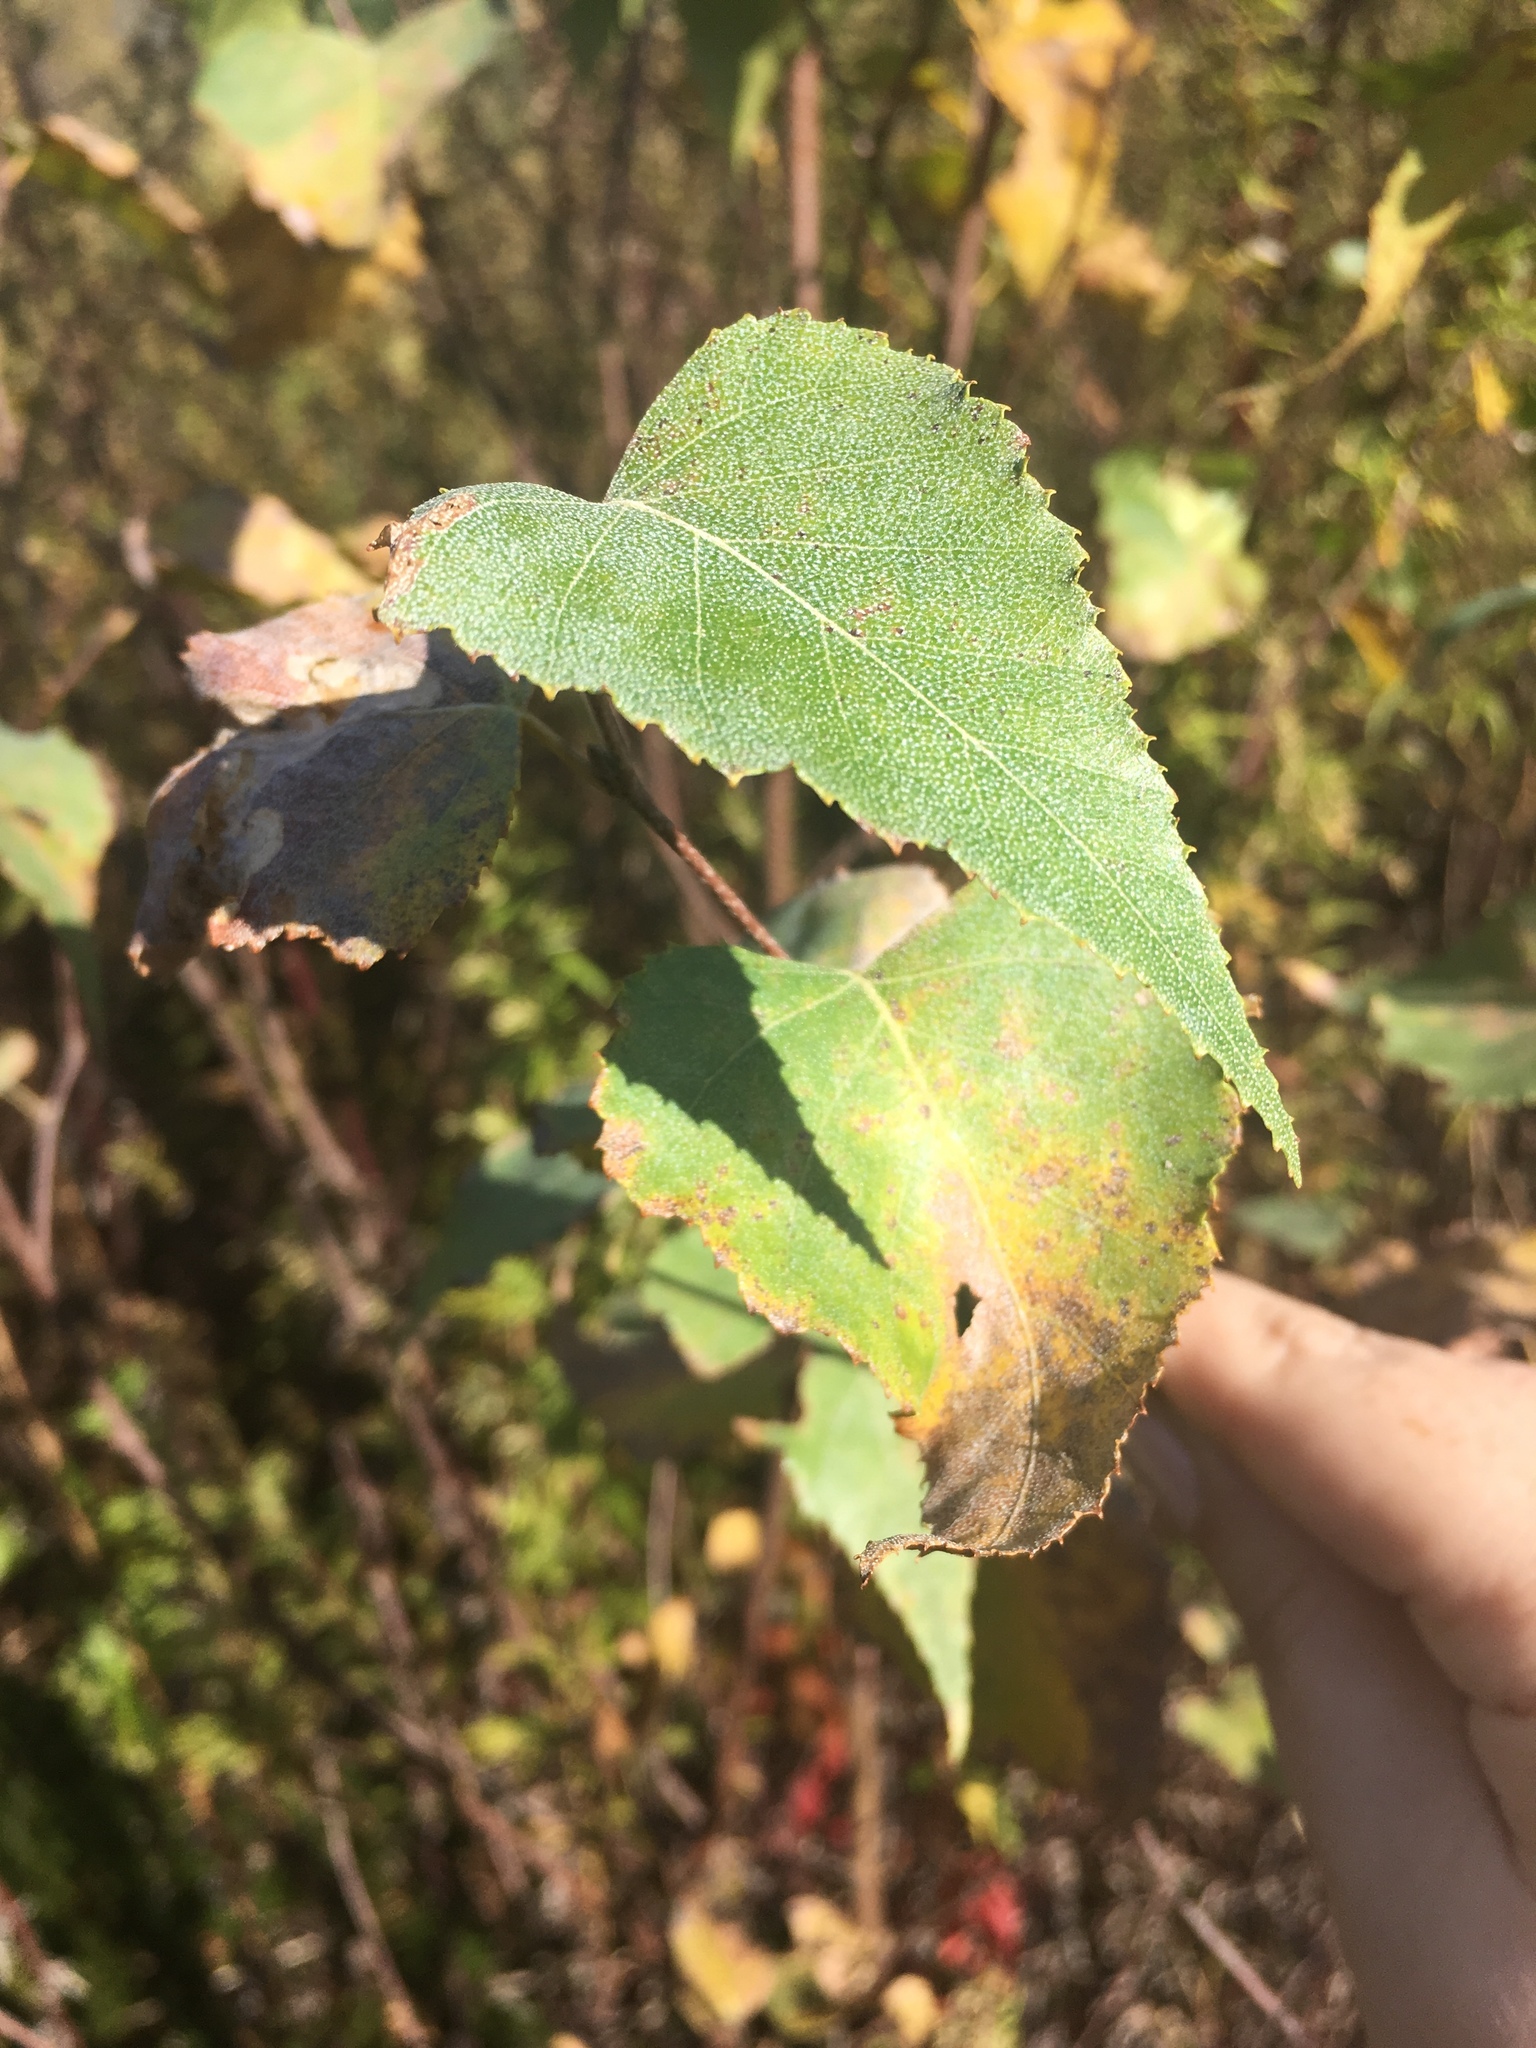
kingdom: Plantae
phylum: Tracheophyta
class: Magnoliopsida
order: Fagales
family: Betulaceae
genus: Betula
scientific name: Betula populifolia
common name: Fire birch
